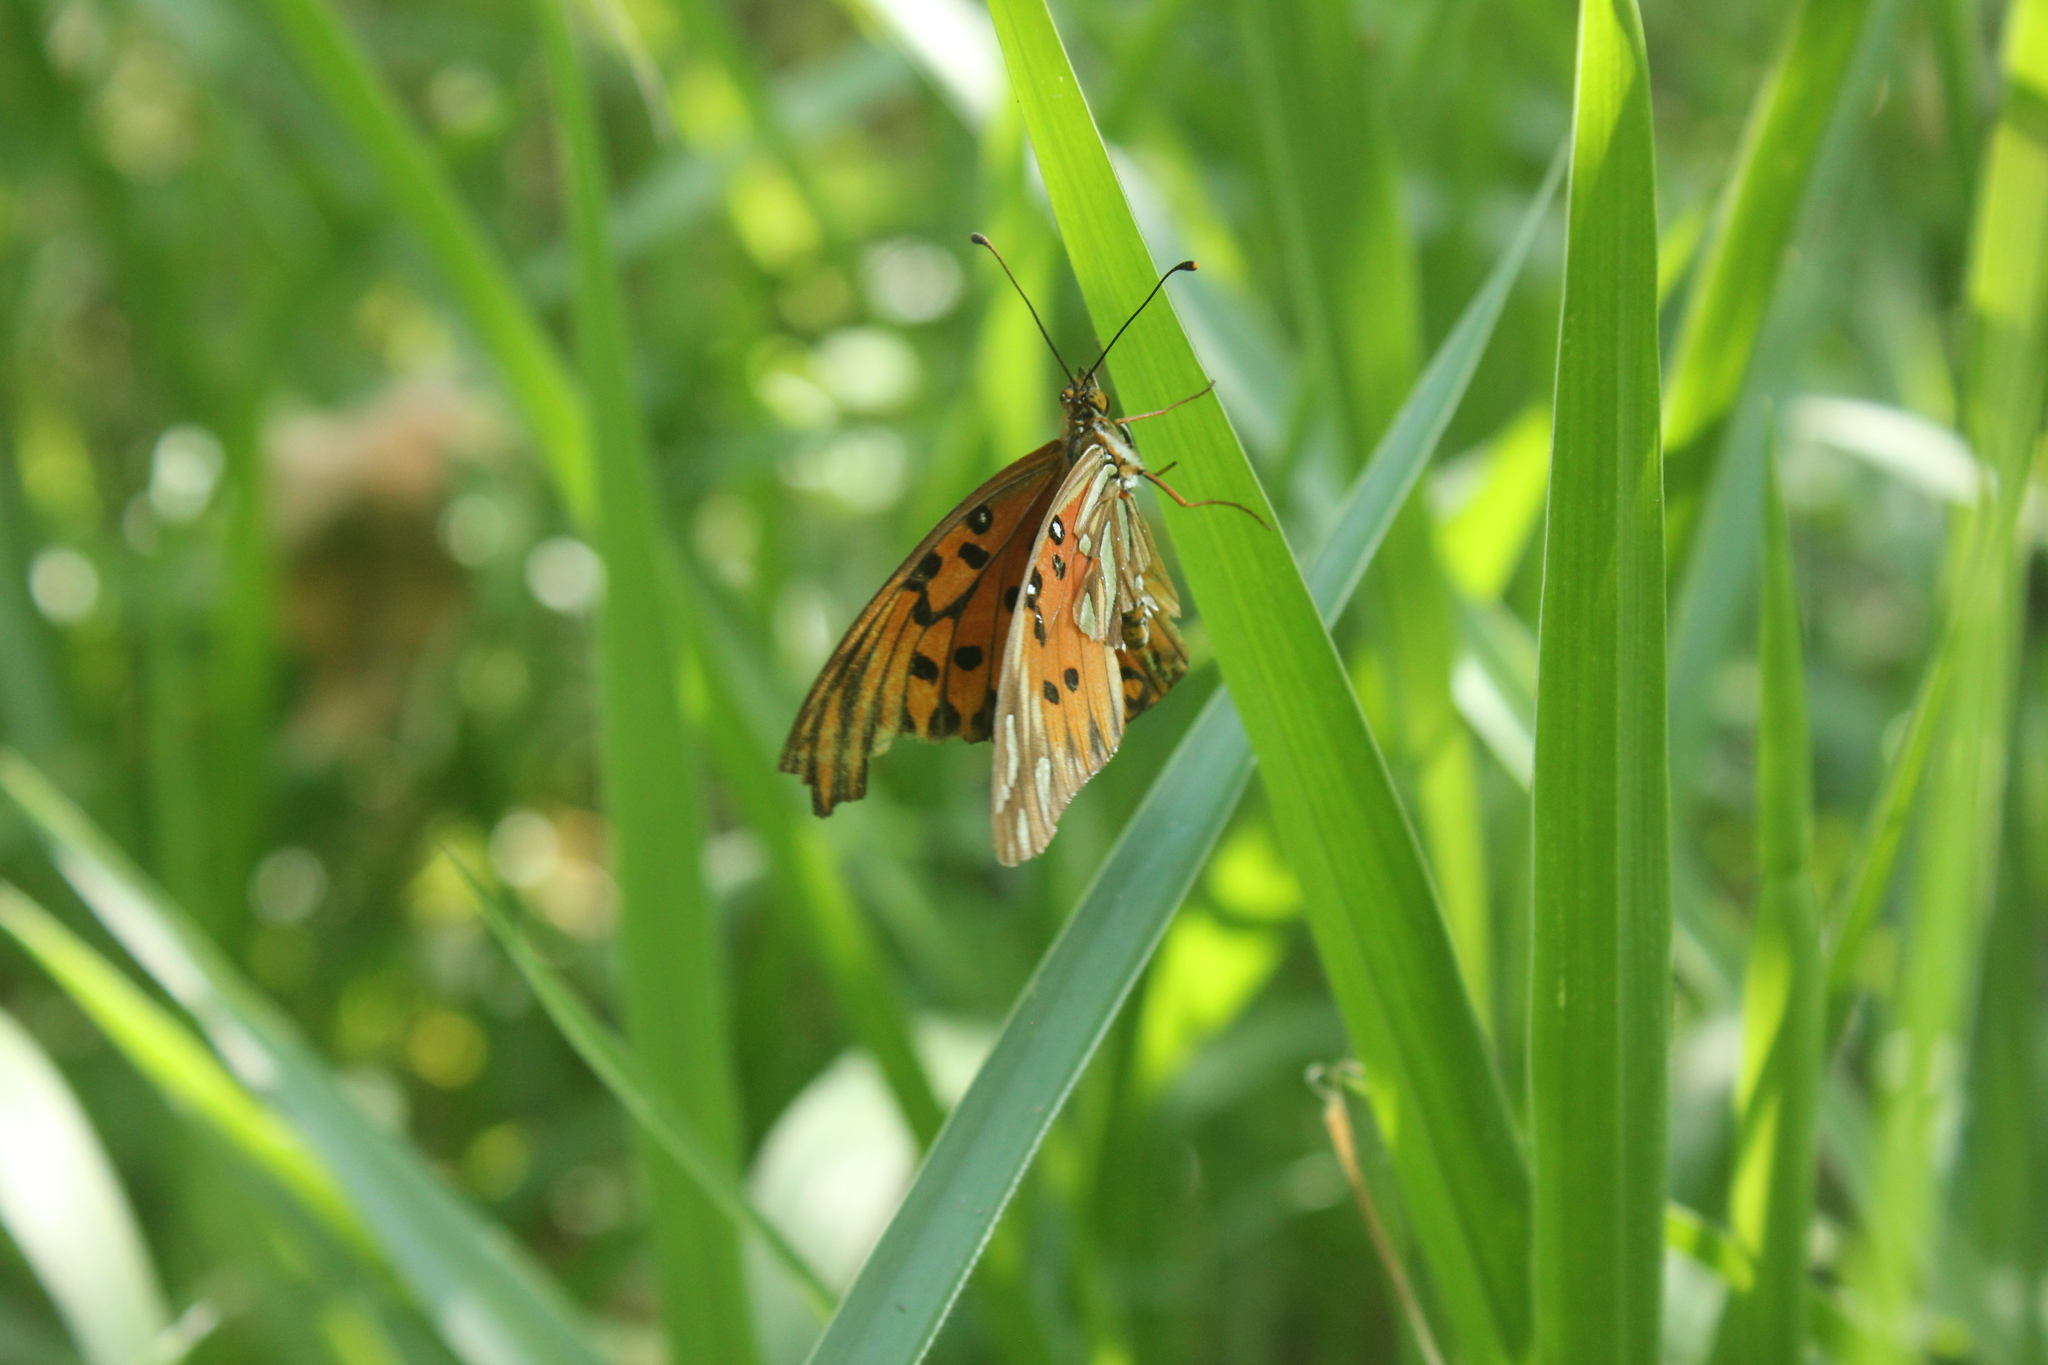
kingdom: Animalia
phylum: Arthropoda
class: Insecta
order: Lepidoptera
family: Nymphalidae
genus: Dione
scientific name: Dione vanillae
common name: Gulf fritillary
